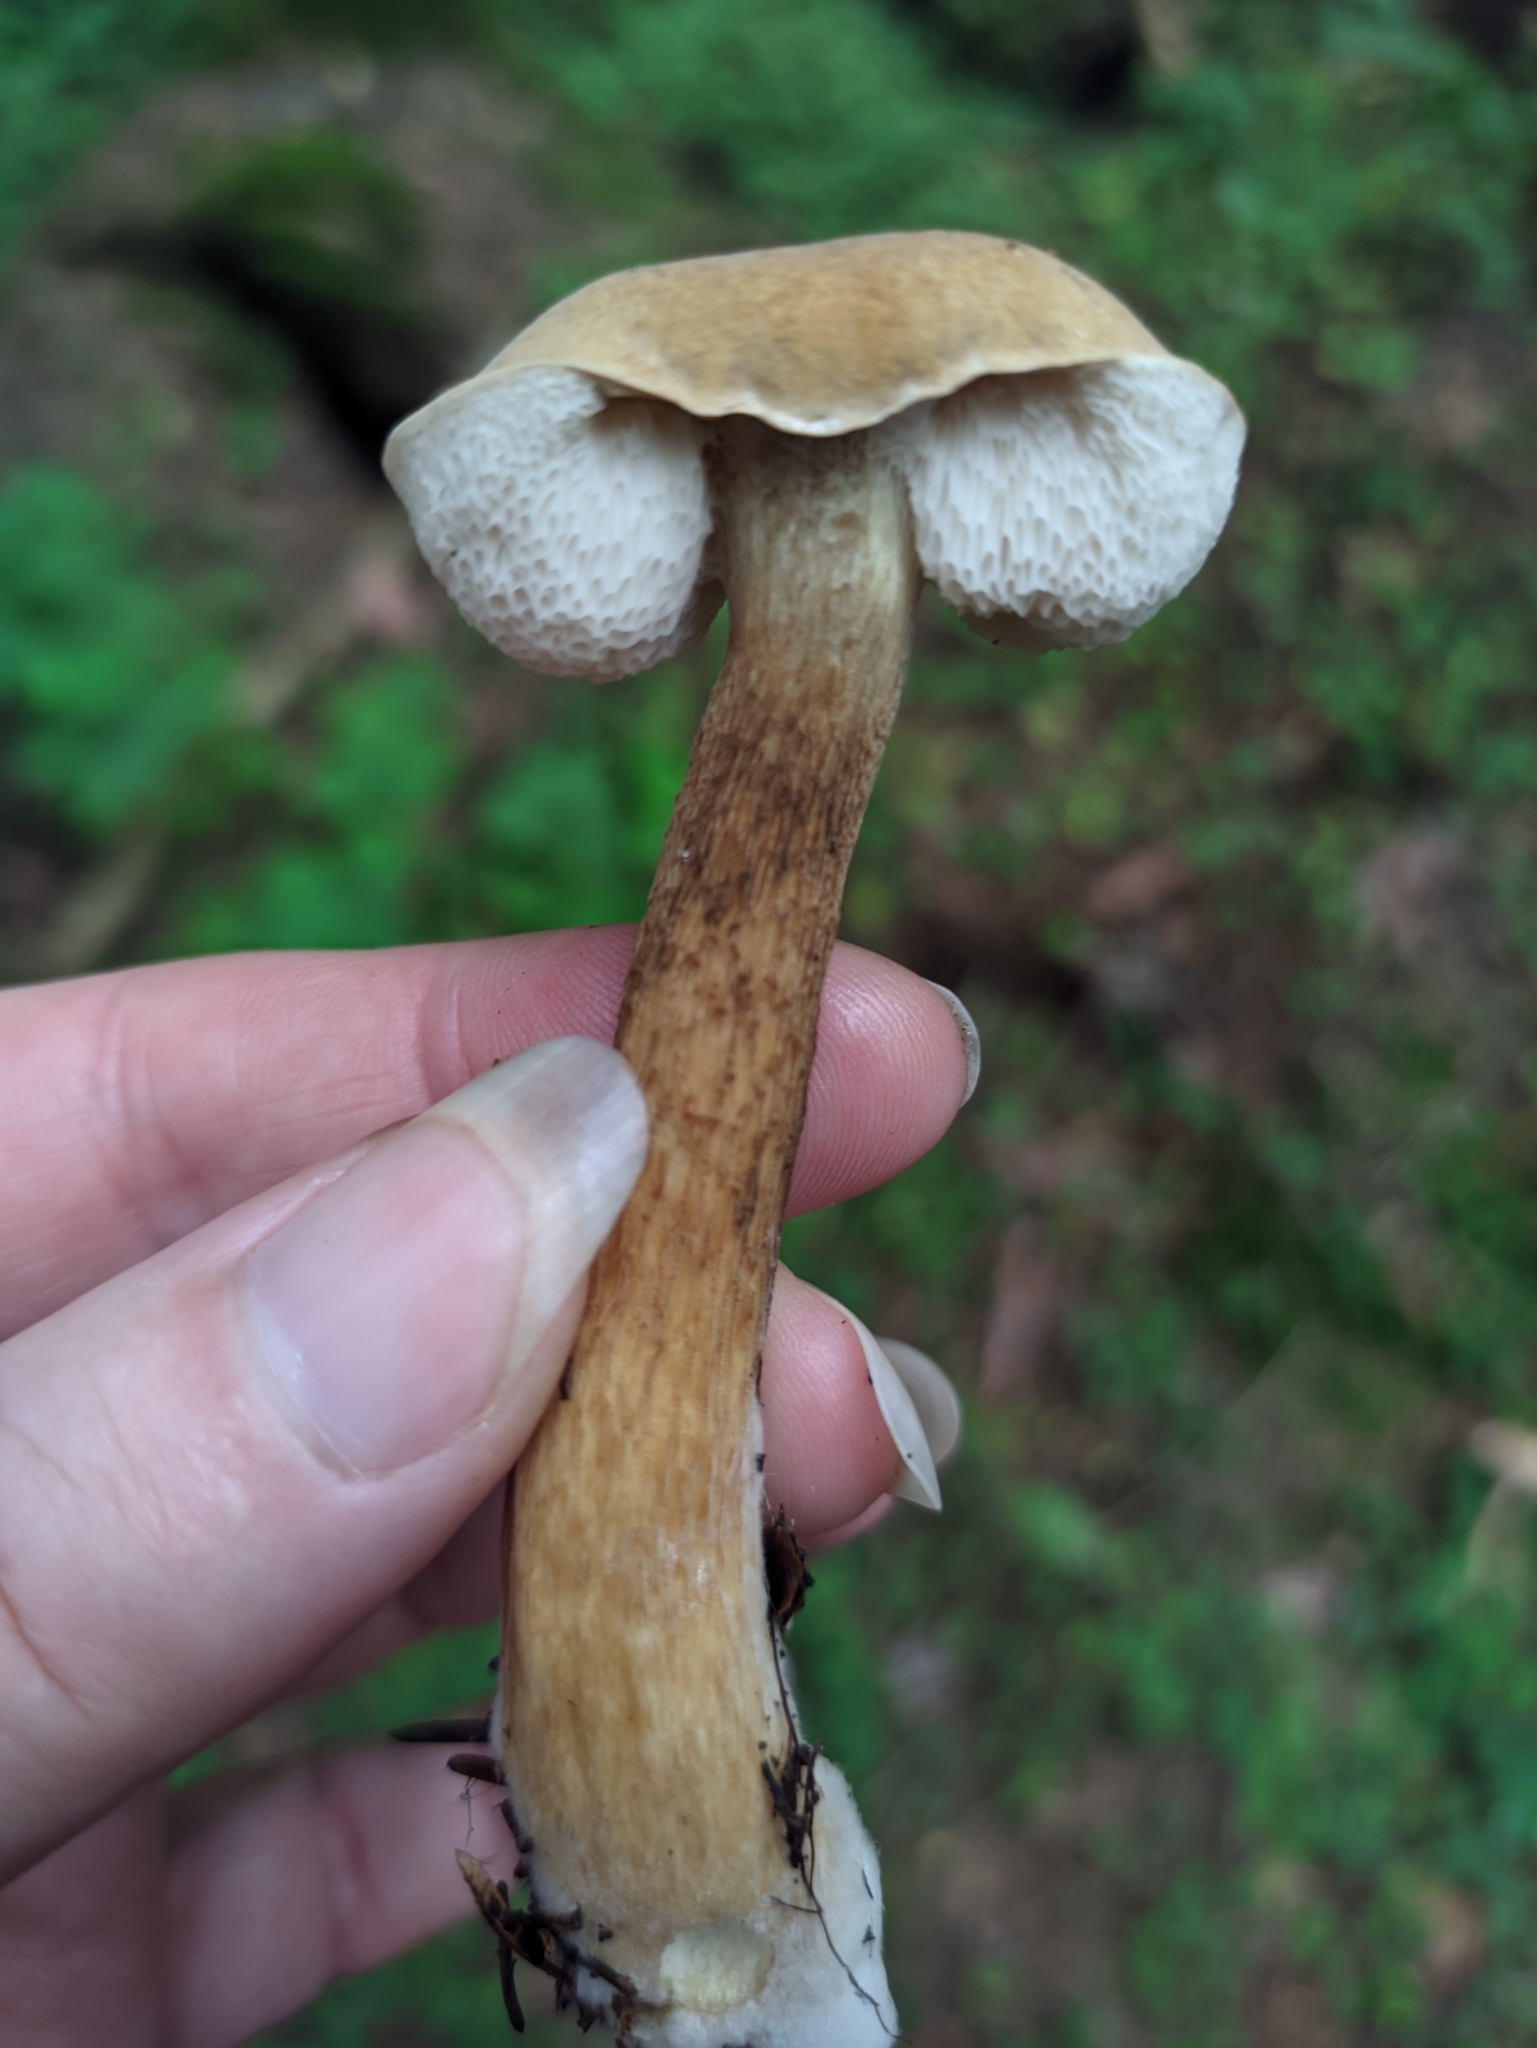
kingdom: Fungi
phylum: Basidiomycota
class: Agaricomycetes
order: Boletales
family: Boletaceae
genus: Tylopilus
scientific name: Tylopilus felleus
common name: Bitter bolete
